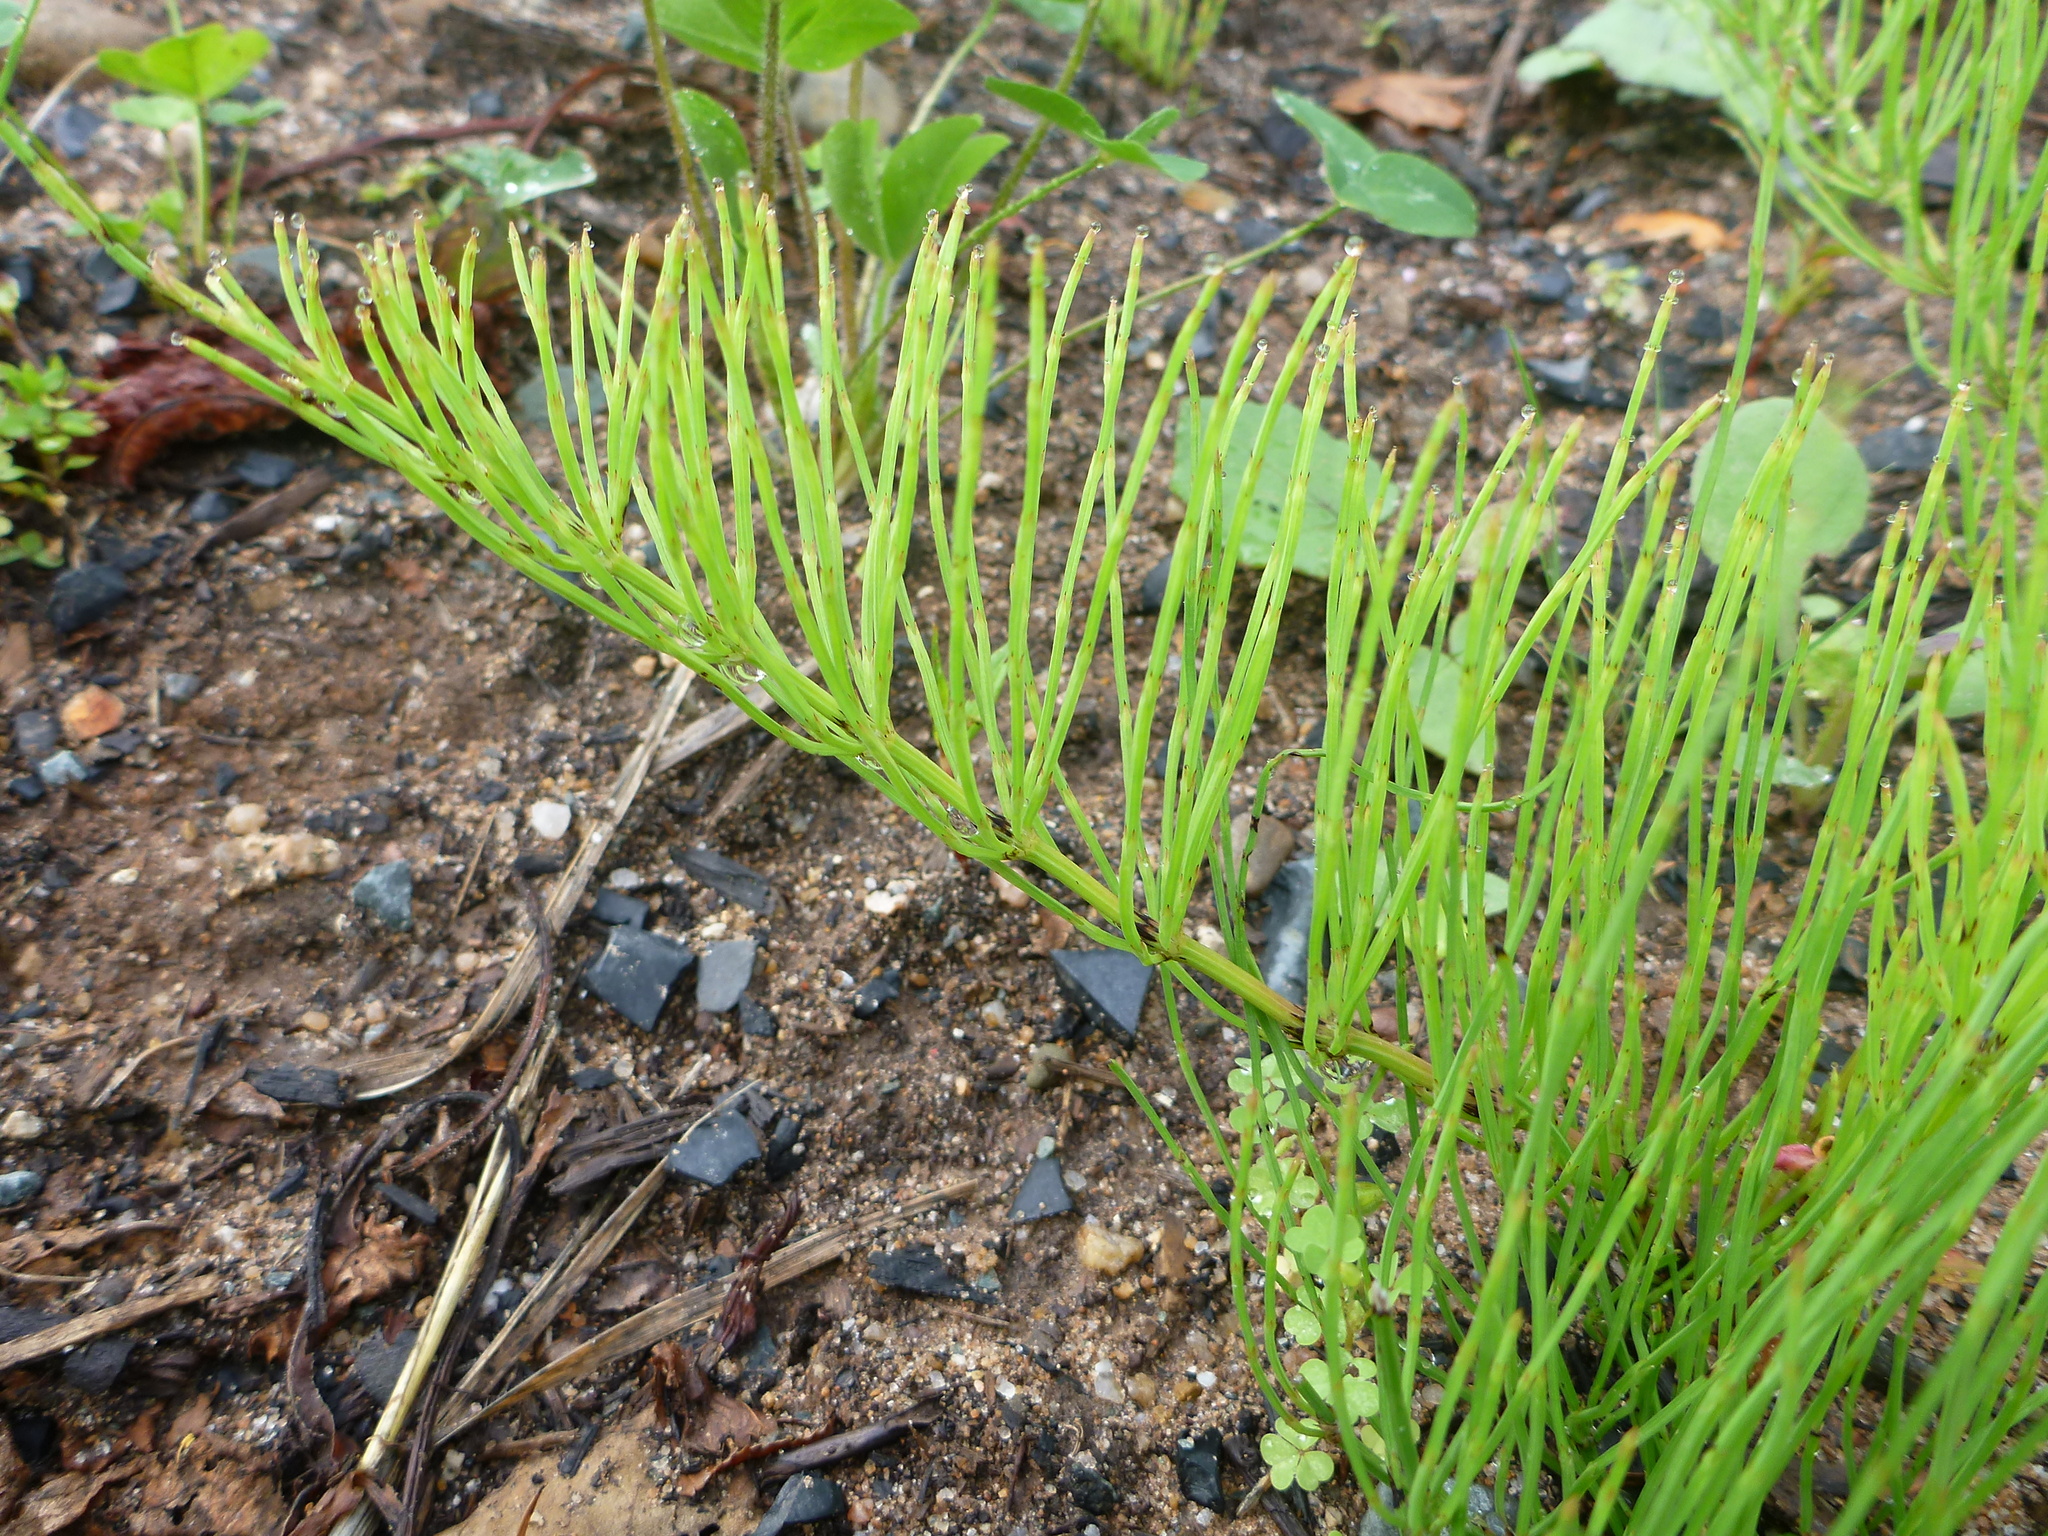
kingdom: Plantae
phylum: Tracheophyta
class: Polypodiopsida
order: Equisetales
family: Equisetaceae
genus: Equisetum
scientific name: Equisetum arvense
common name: Field horsetail
